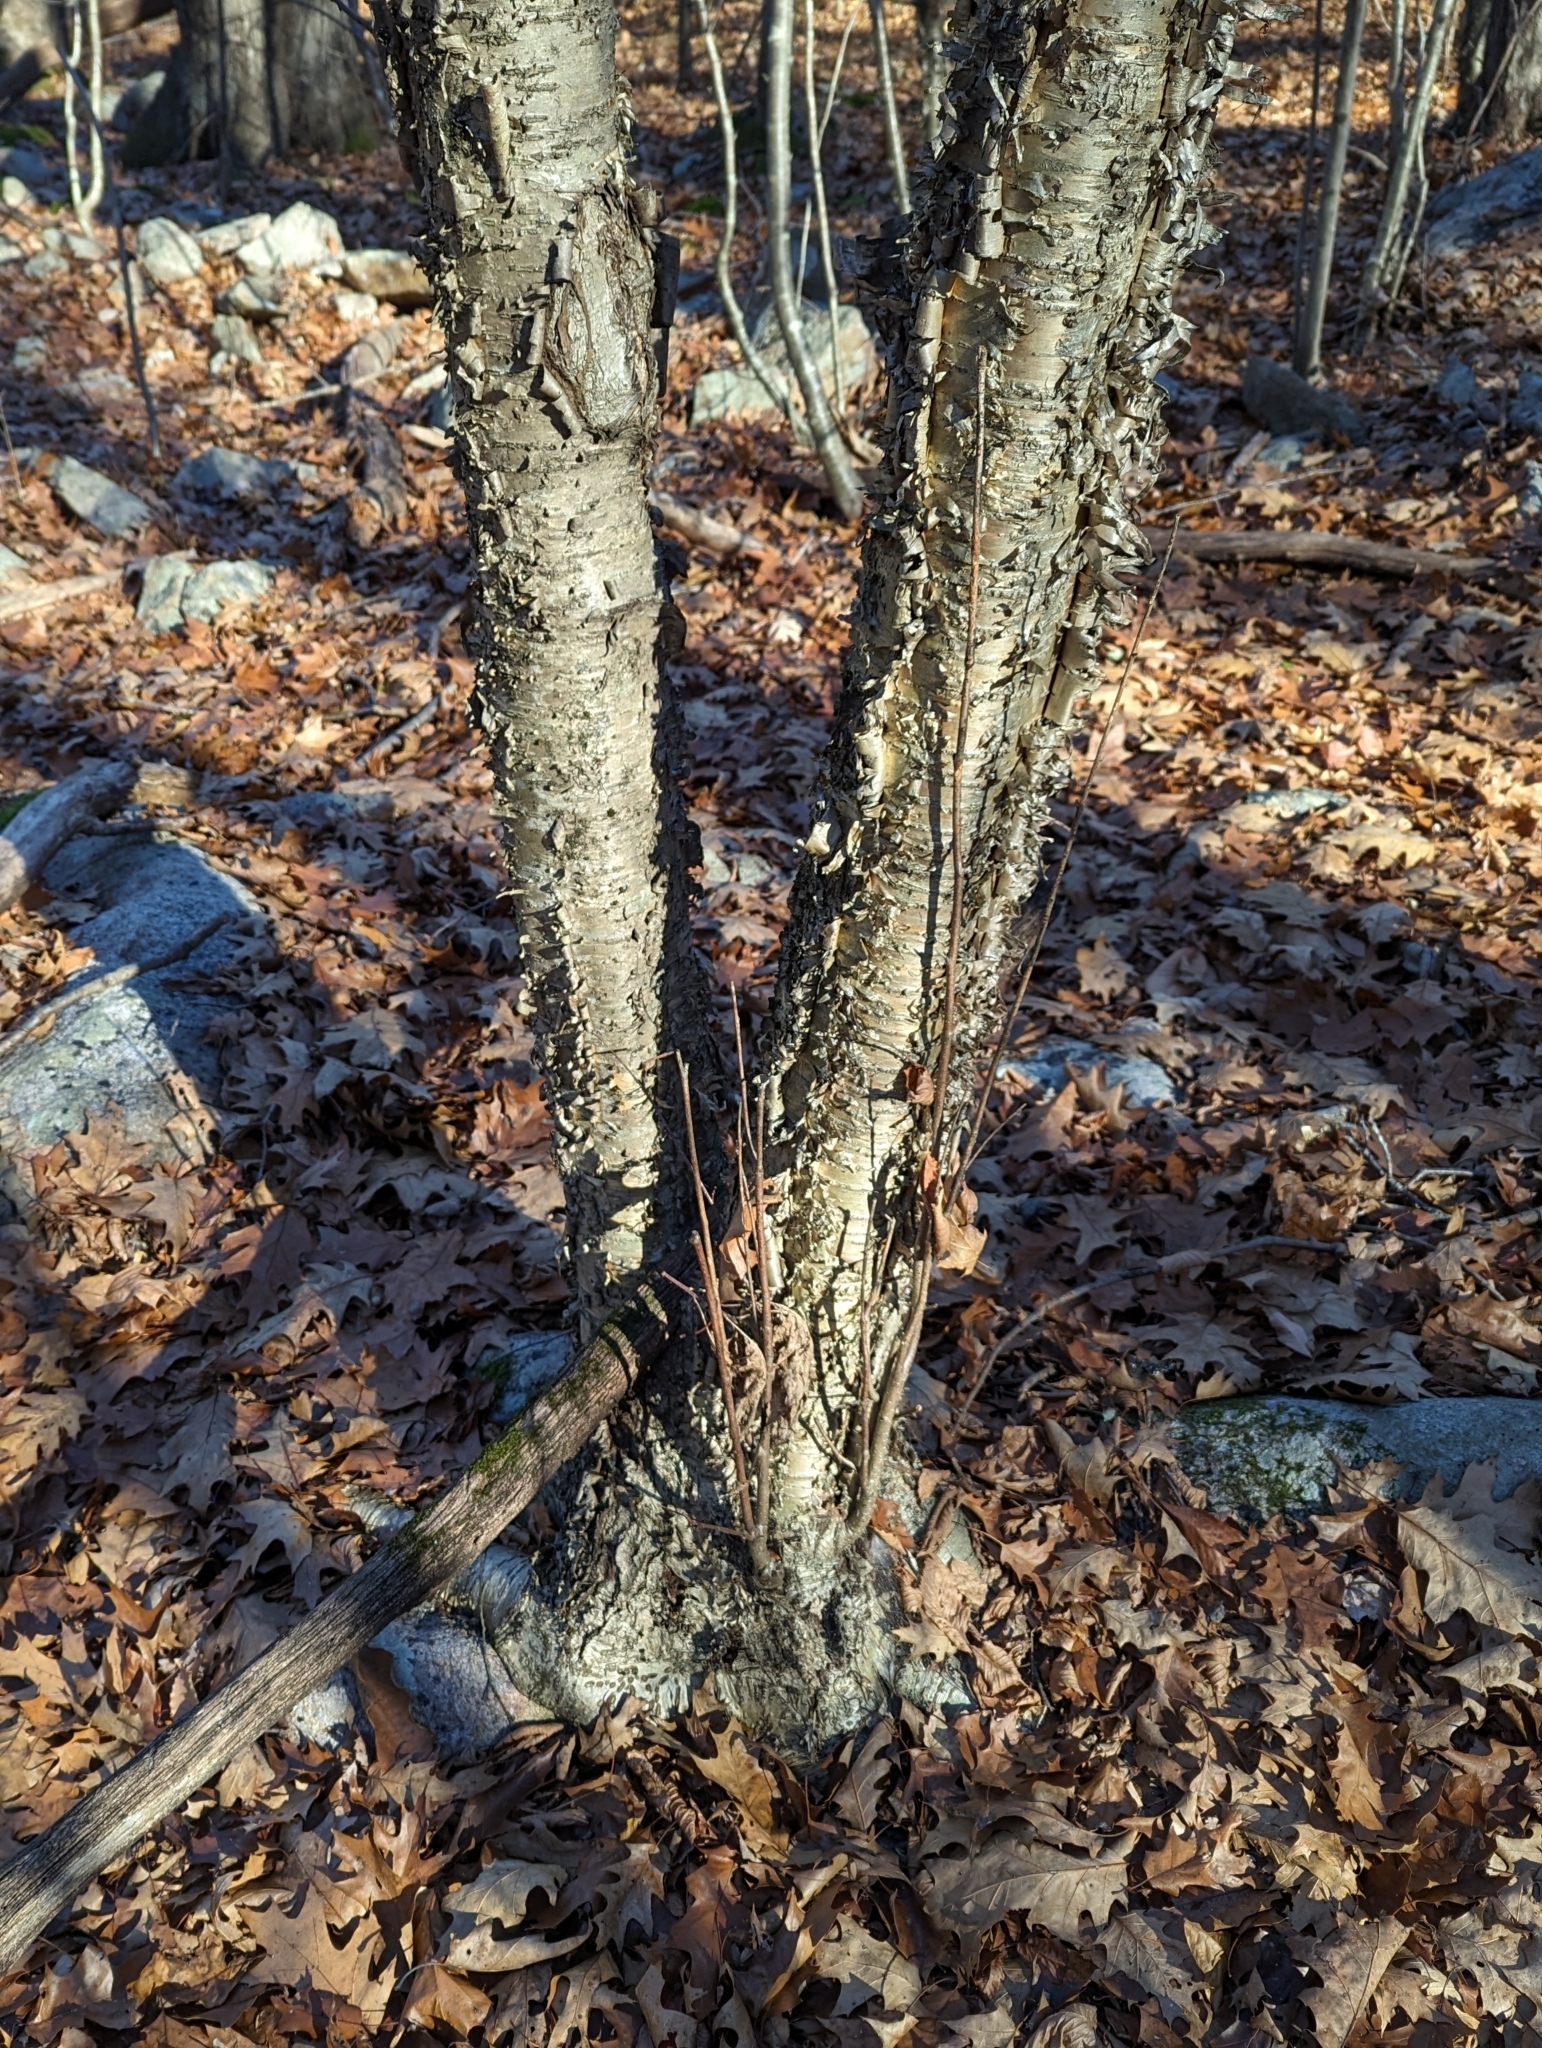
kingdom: Plantae
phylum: Tracheophyta
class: Magnoliopsida
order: Fagales
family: Betulaceae
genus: Betula
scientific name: Betula alleghaniensis
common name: Yellow birch
